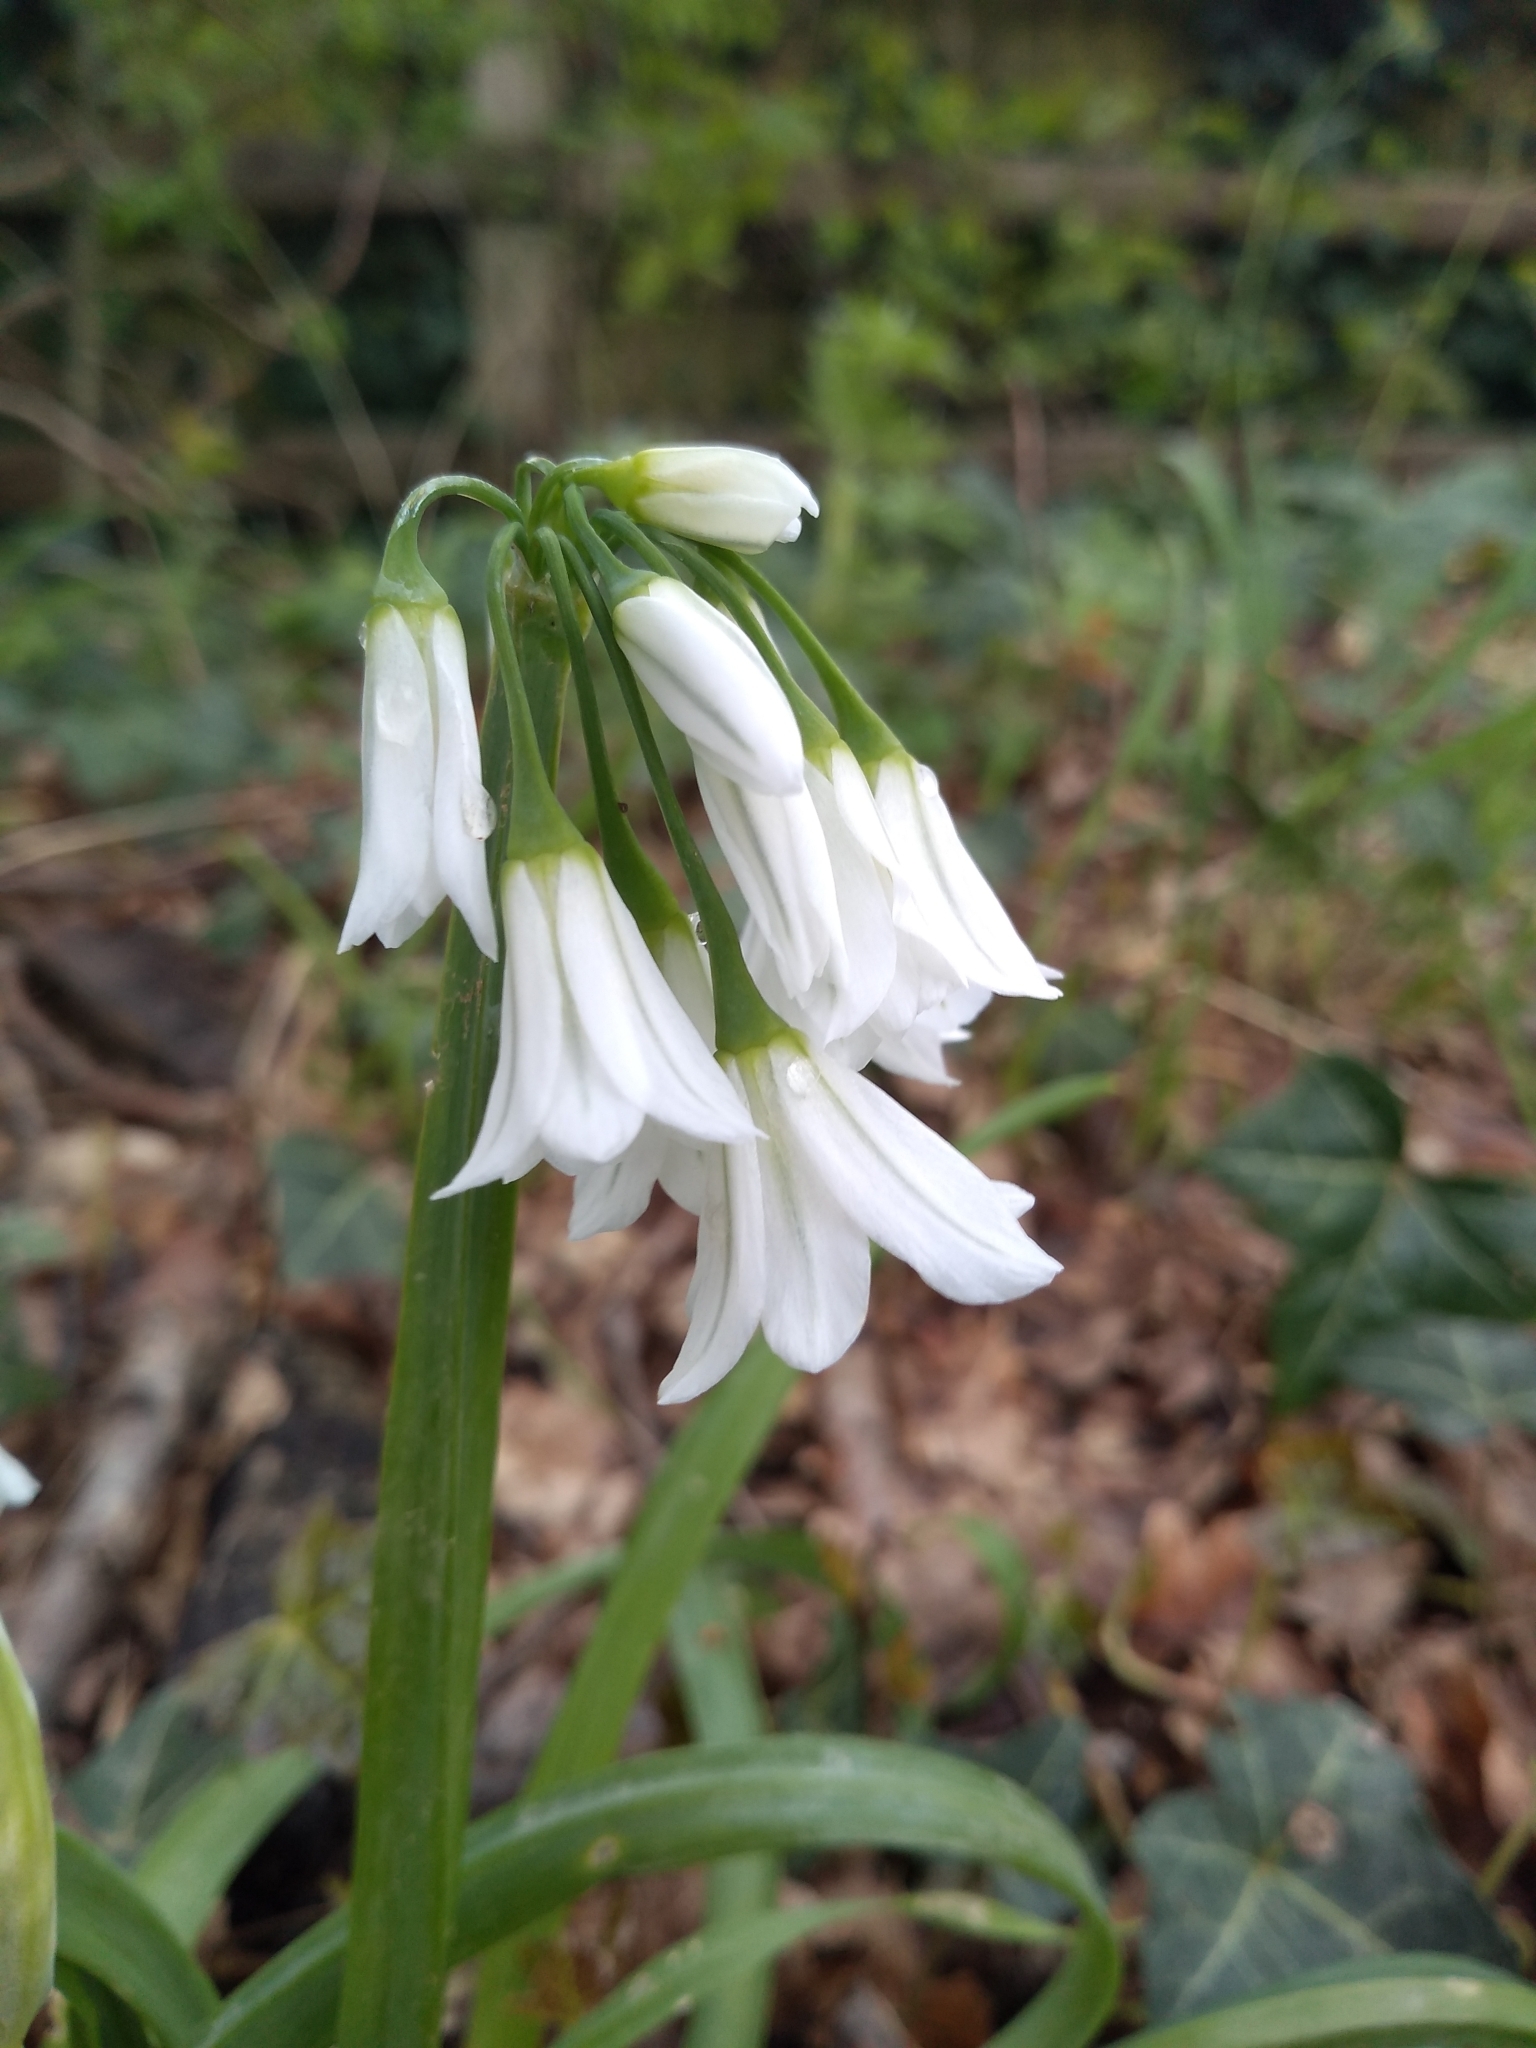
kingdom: Plantae
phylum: Tracheophyta
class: Liliopsida
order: Asparagales
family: Amaryllidaceae
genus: Allium
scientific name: Allium triquetrum
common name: Three-cornered garlic
